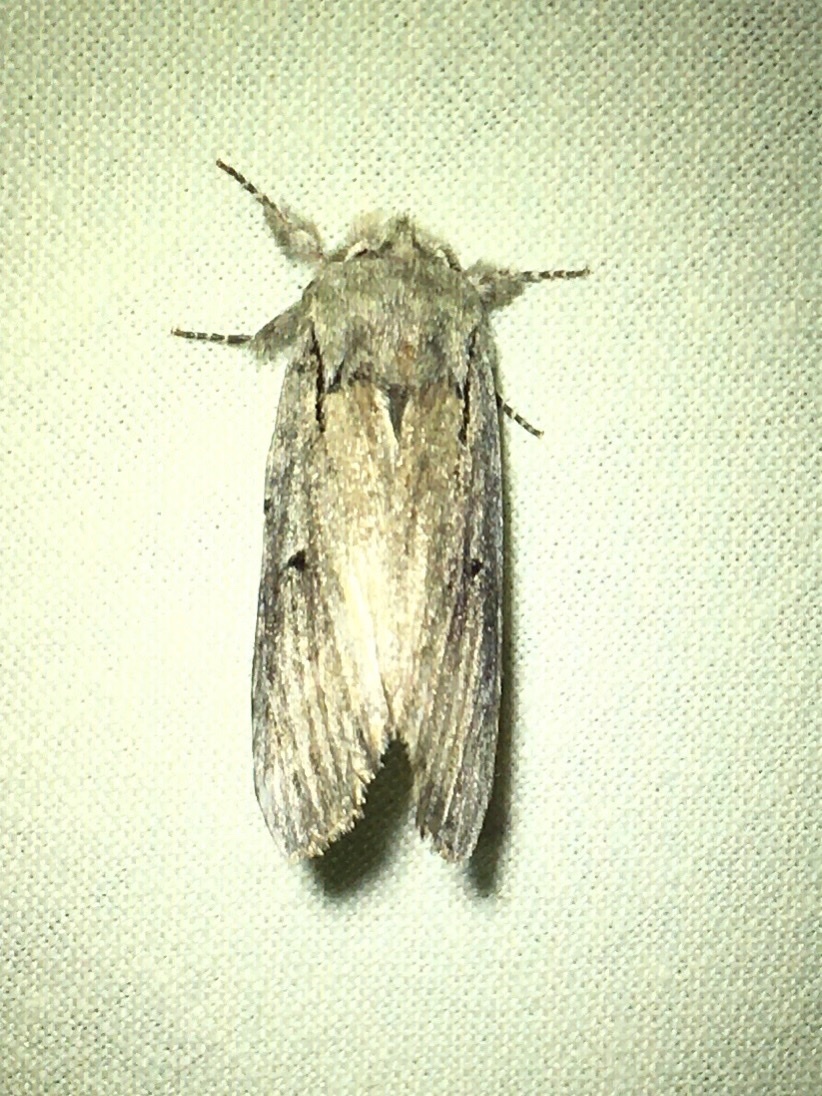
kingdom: Animalia
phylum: Arthropoda
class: Insecta
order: Lepidoptera
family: Notodontidae
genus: Schizura
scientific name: Schizura
